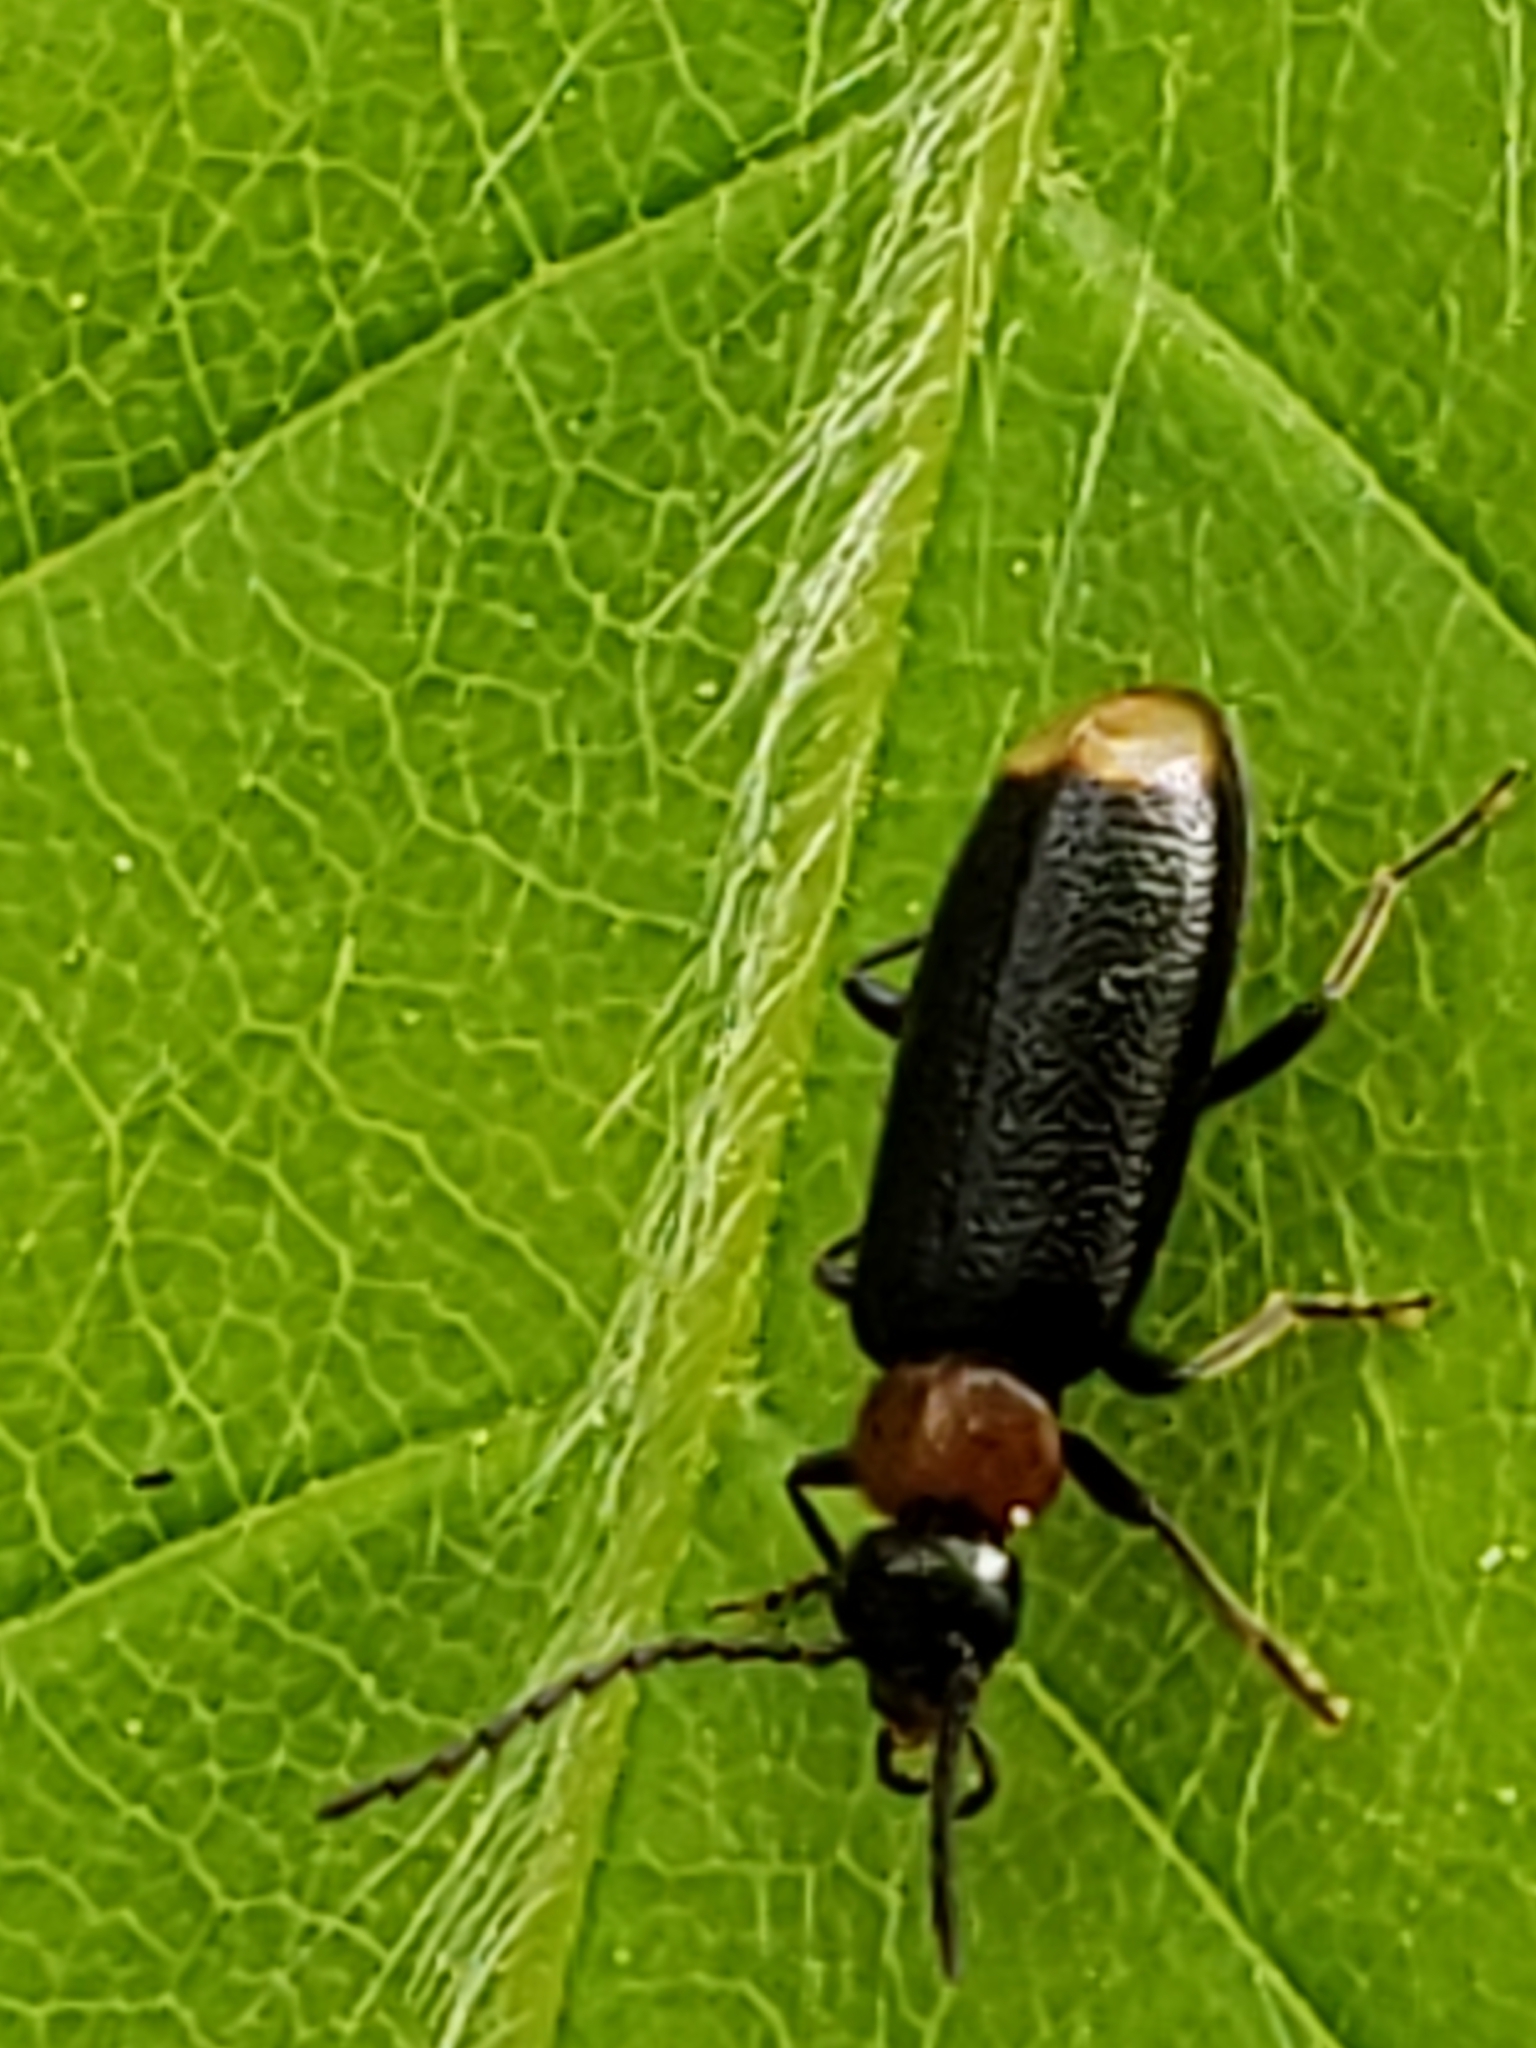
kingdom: Animalia
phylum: Arthropoda
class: Insecta
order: Coleoptera
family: Pyrochroidae
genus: Pedilus
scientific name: Pedilus terminalis
